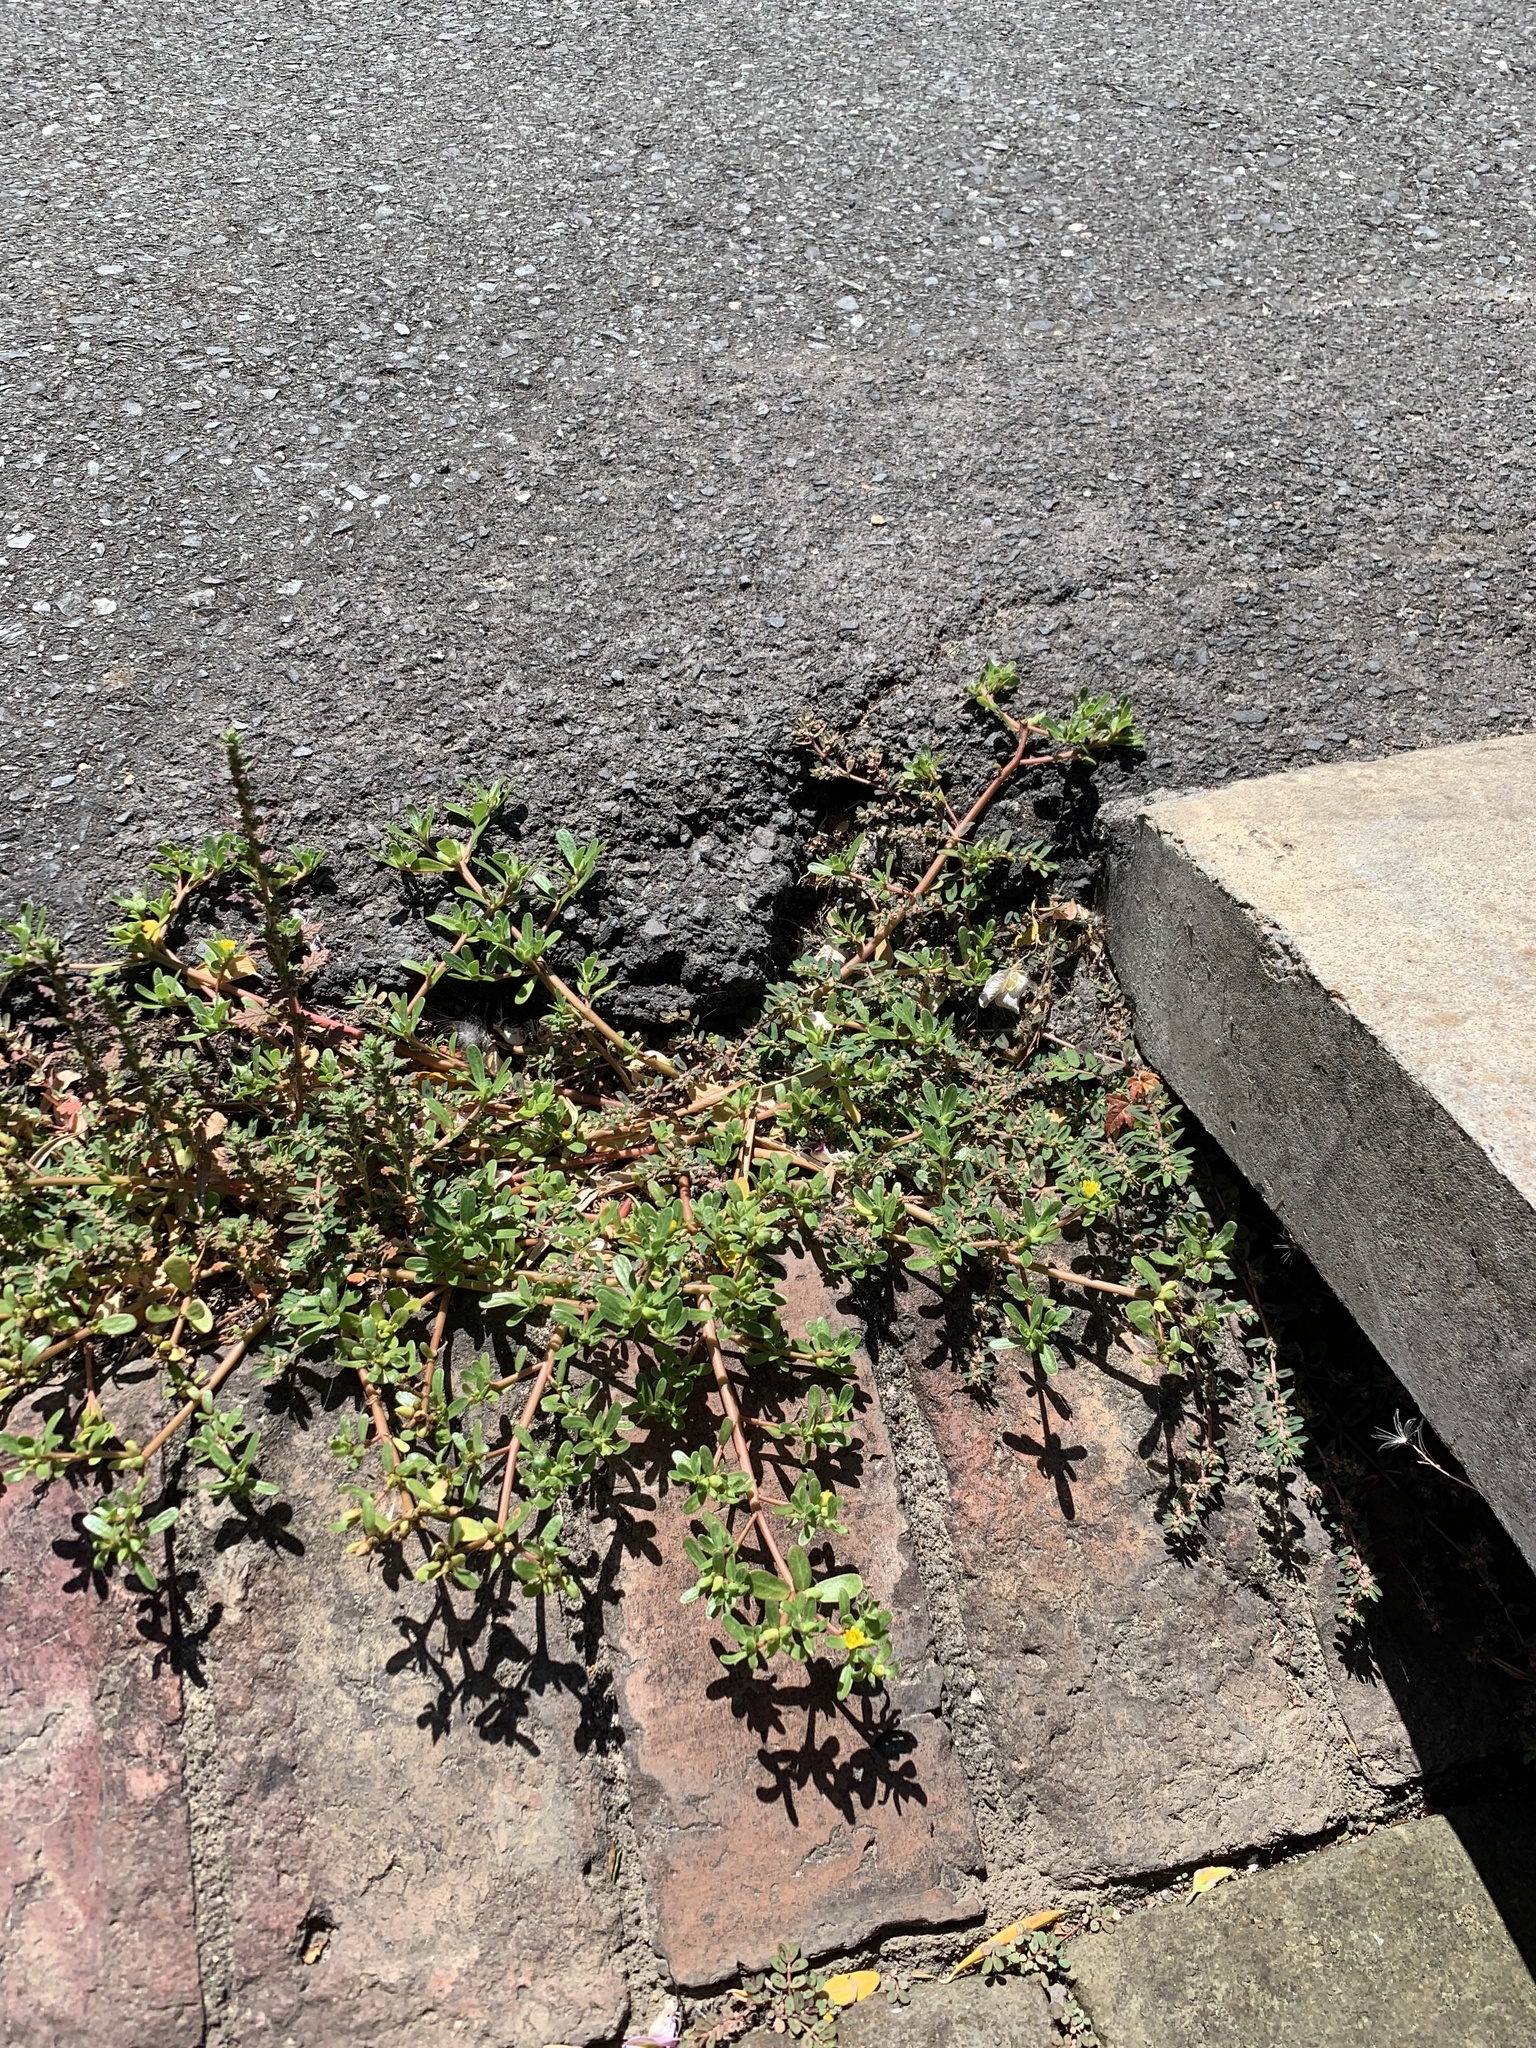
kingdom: Plantae
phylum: Tracheophyta
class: Magnoliopsida
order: Caryophyllales
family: Portulacaceae
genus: Portulaca
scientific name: Portulaca oleracea
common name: Common purslane
